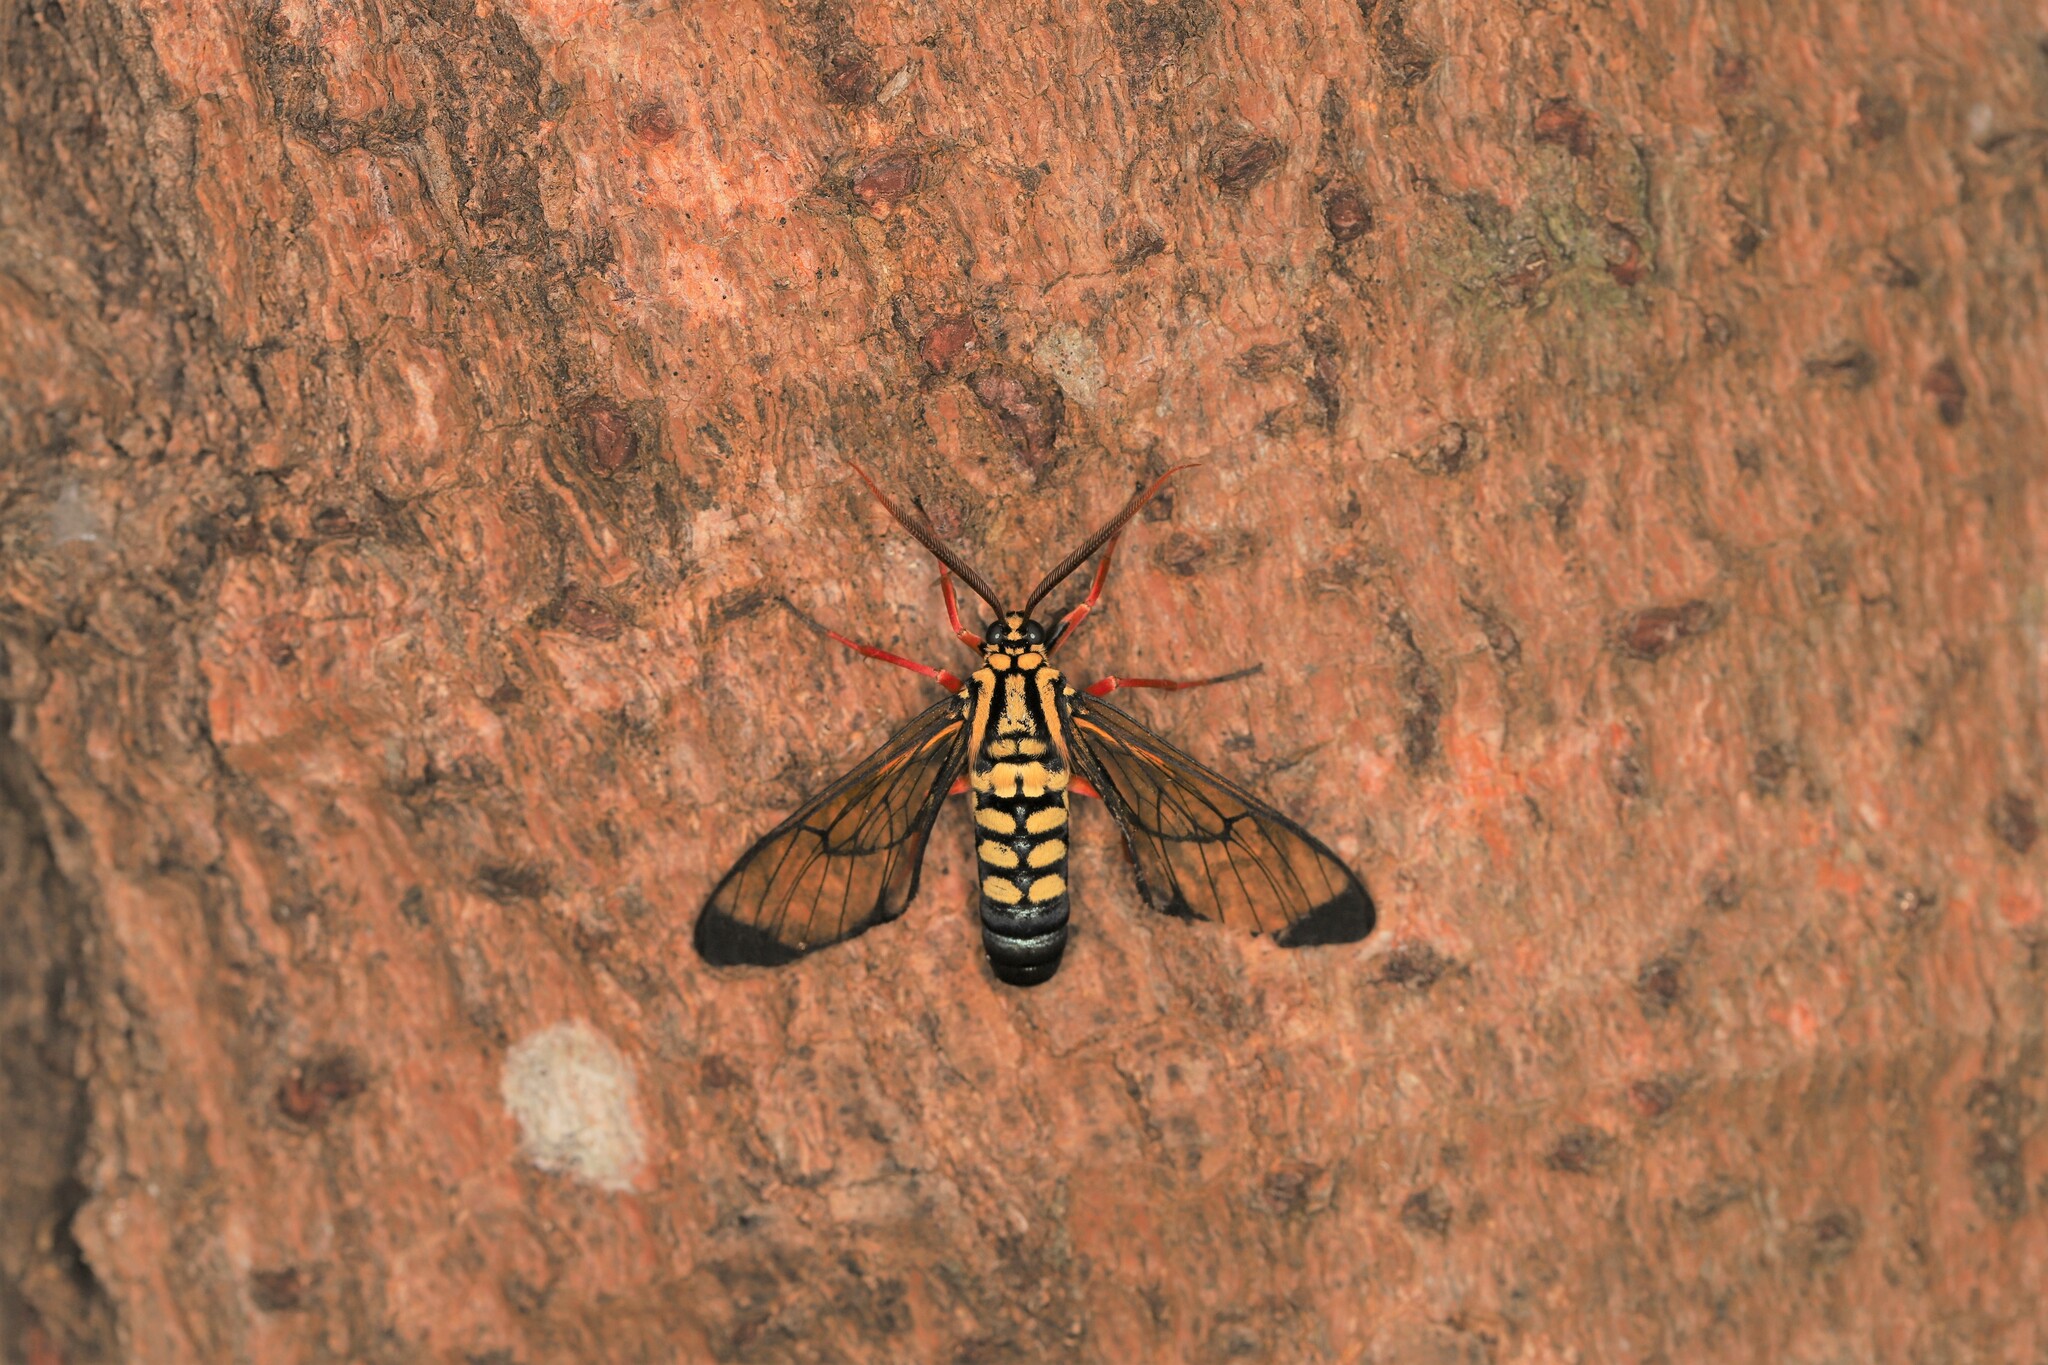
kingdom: Animalia
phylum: Arthropoda
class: Insecta
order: Lepidoptera
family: Erebidae
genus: Isanthrene
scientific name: Isanthrene crabroniformis
